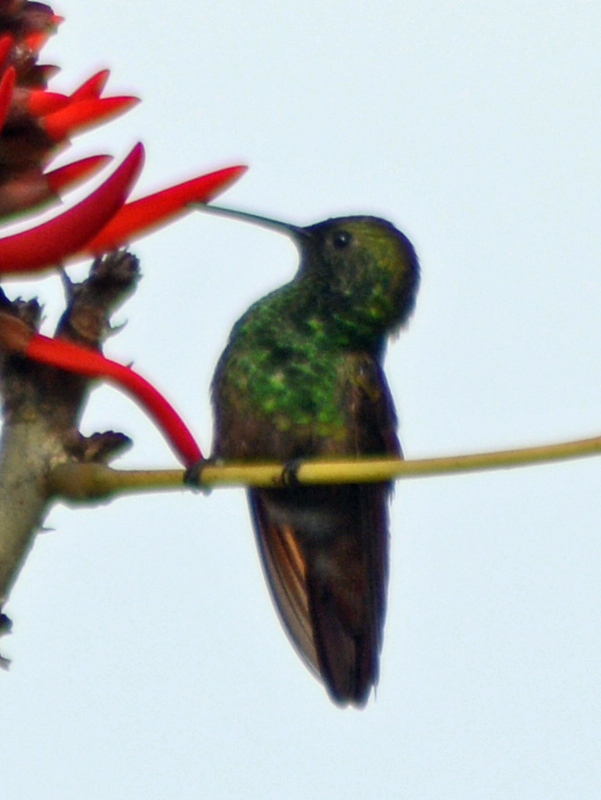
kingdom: Animalia
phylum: Chordata
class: Aves
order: Apodiformes
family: Trochilidae
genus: Saucerottia
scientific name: Saucerottia beryllina
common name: Berylline hummingbird
